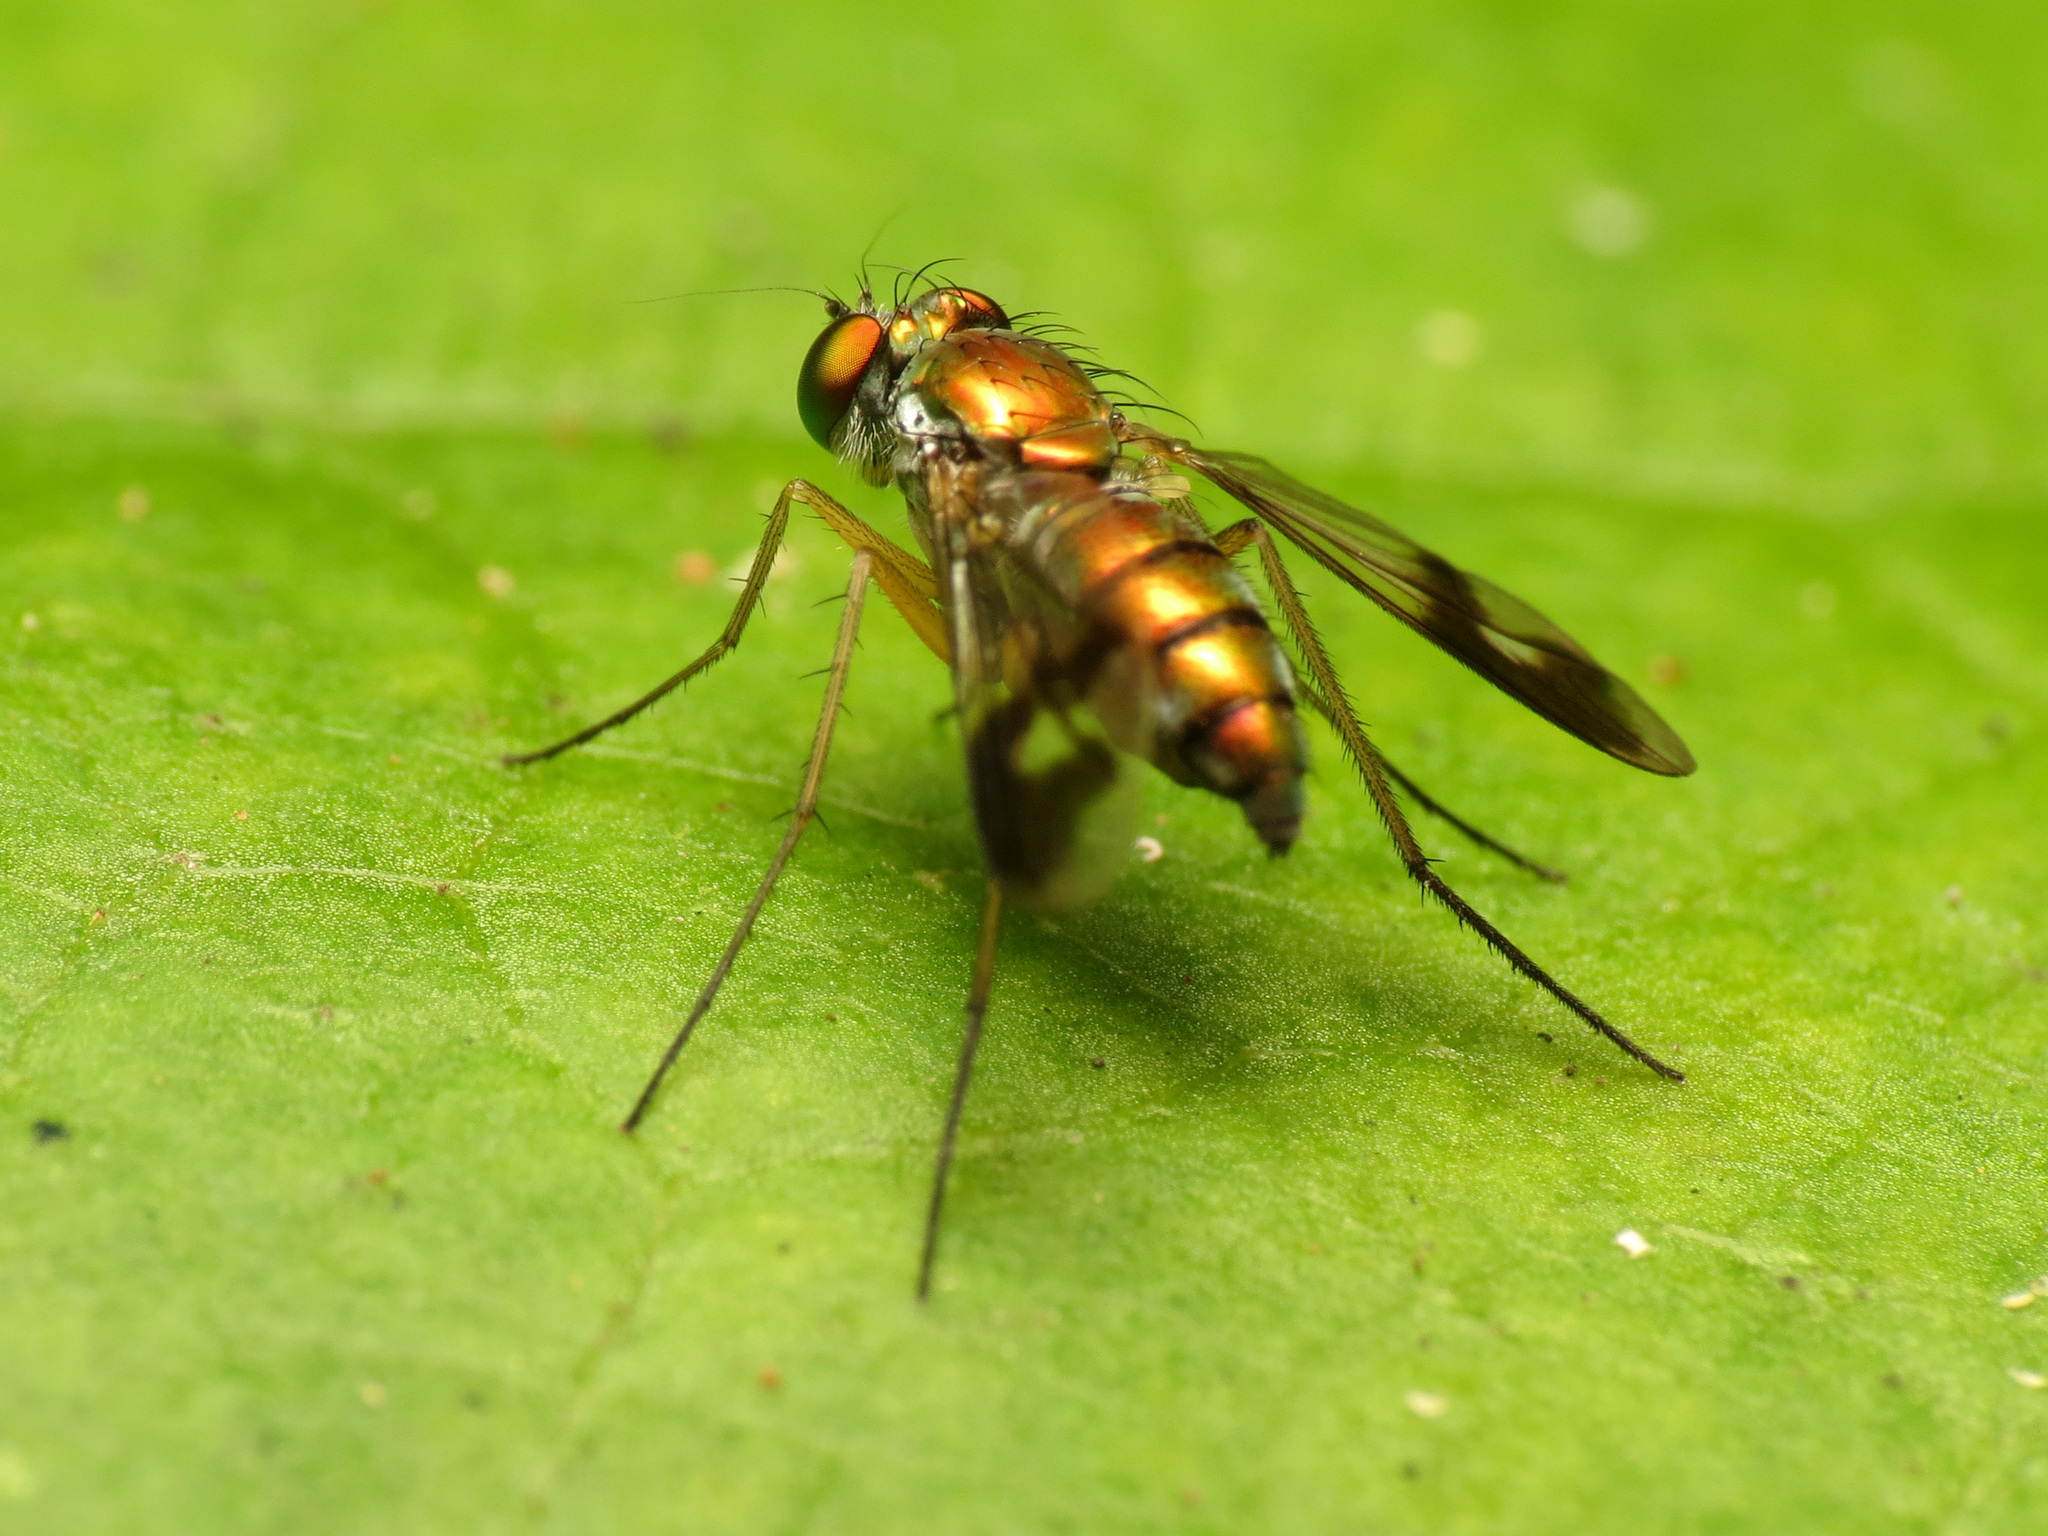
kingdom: Animalia
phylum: Arthropoda
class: Insecta
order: Diptera
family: Dolichopodidae
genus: Condylostylus
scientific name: Condylostylus
